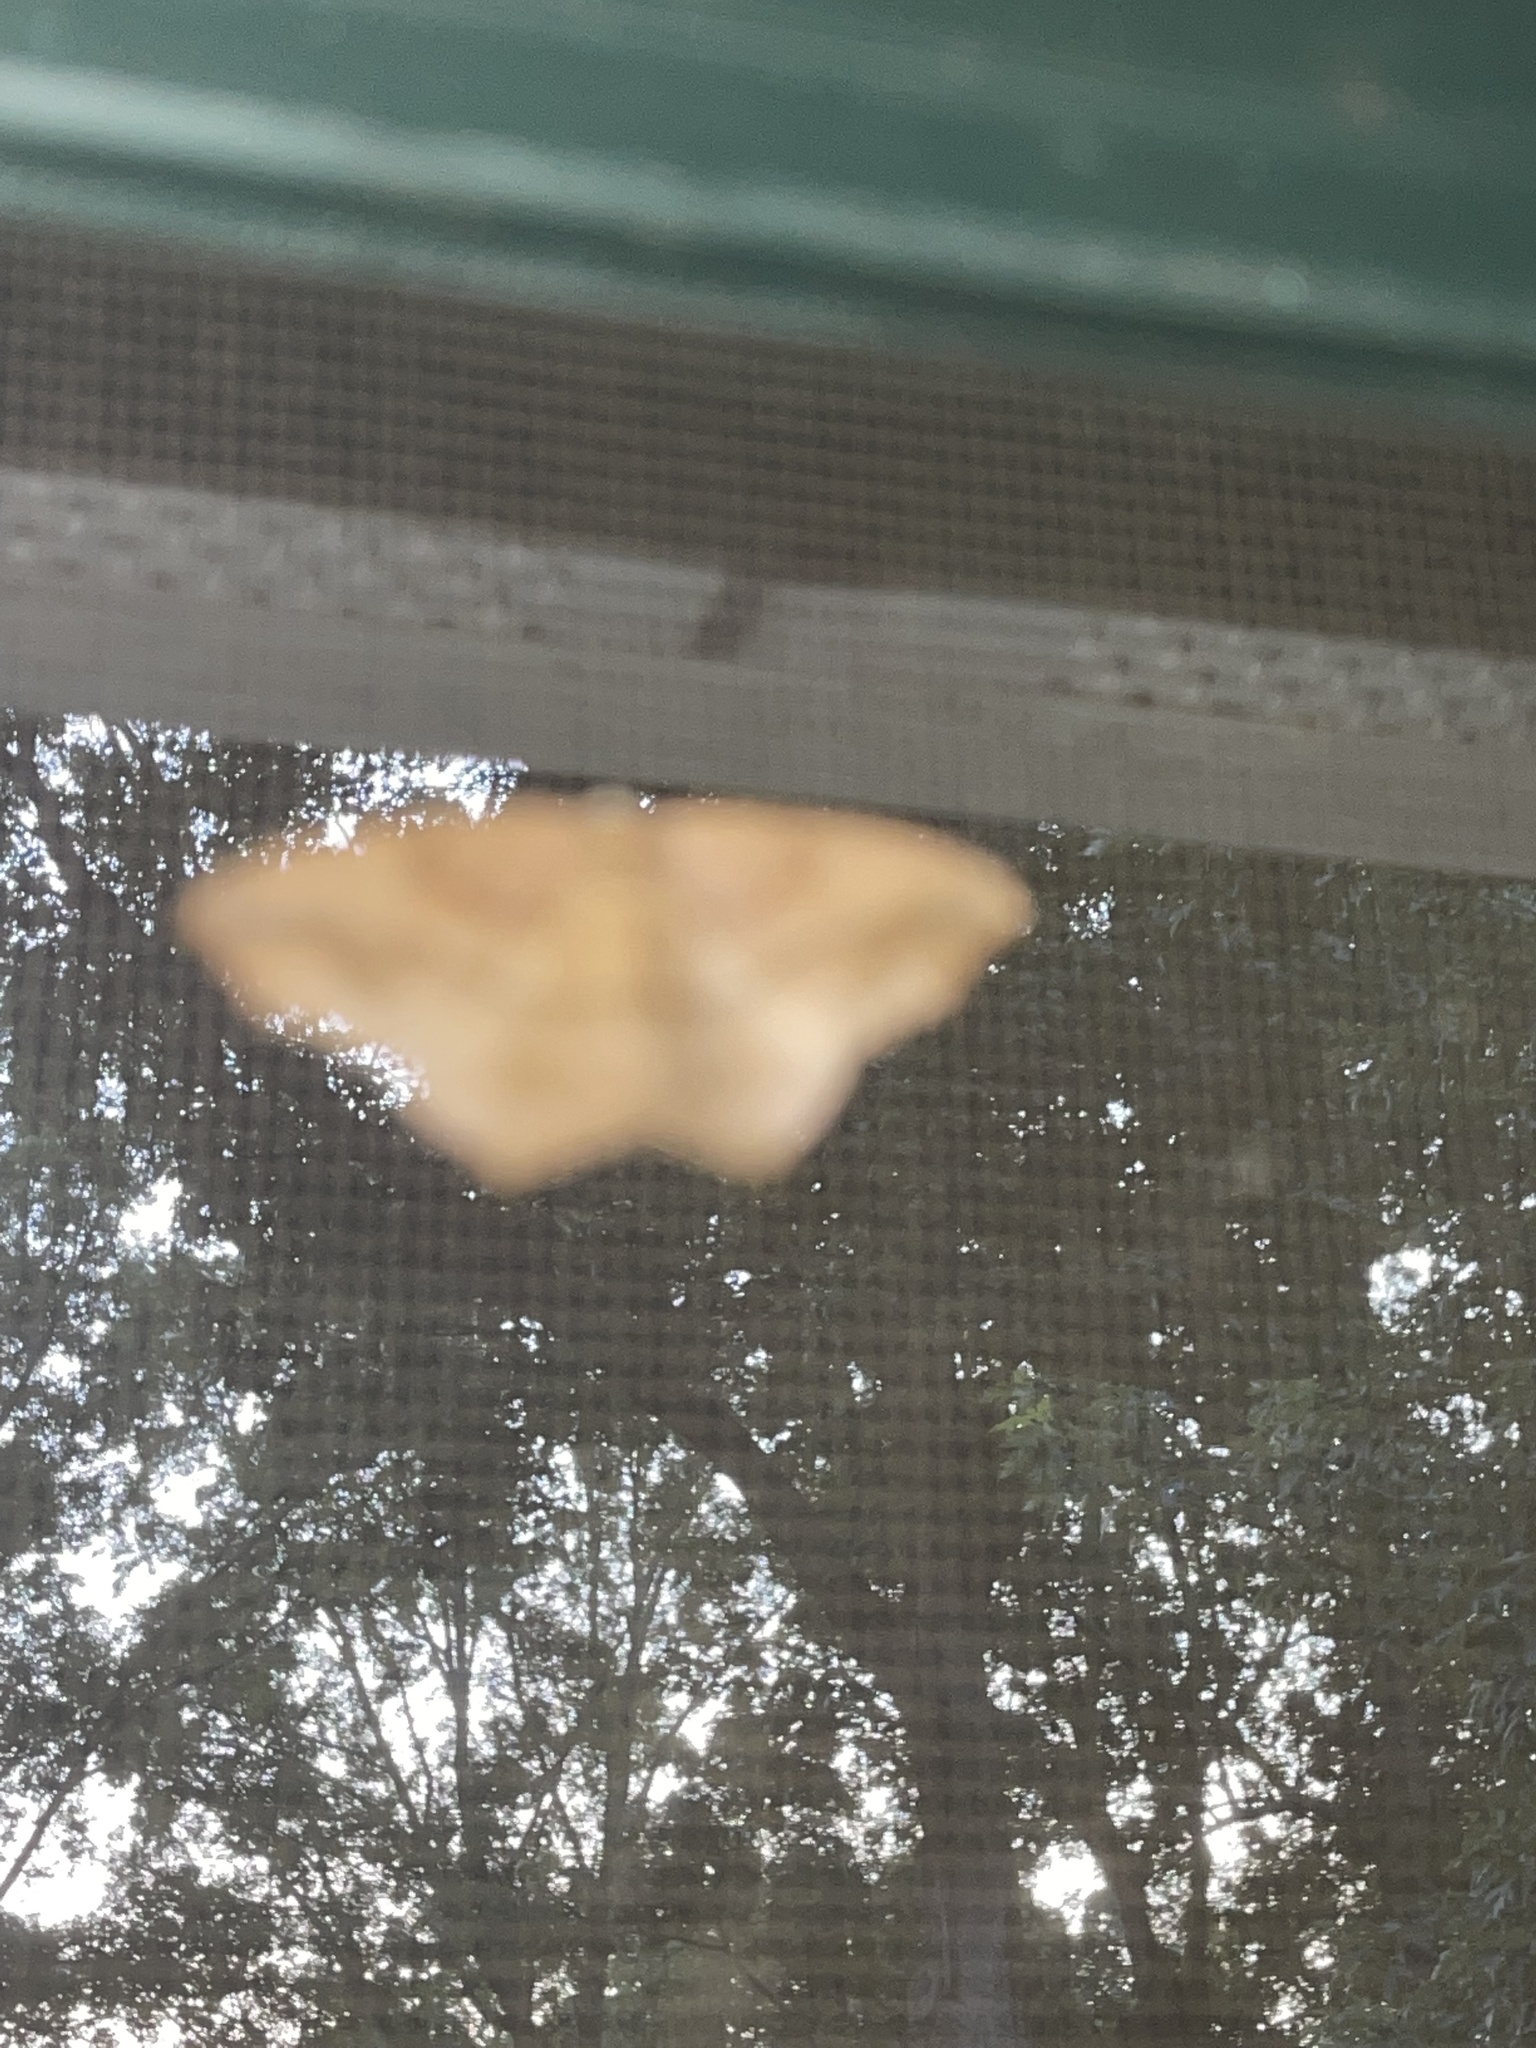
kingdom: Animalia
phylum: Arthropoda
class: Insecta
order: Lepidoptera
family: Geometridae
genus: Prochoerodes
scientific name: Prochoerodes lineola
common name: Large maple spanworm
